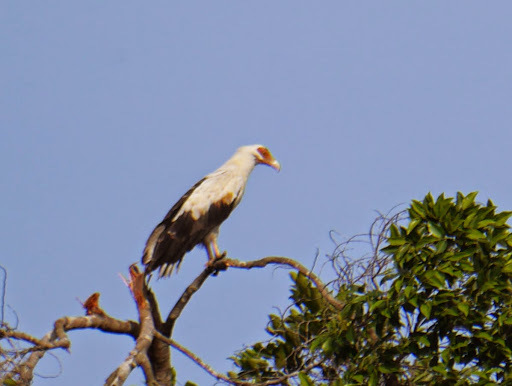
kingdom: Animalia
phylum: Chordata
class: Aves
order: Accipitriformes
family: Accipitridae
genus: Gypohierax
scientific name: Gypohierax angolensis
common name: Palm-nut vulture
